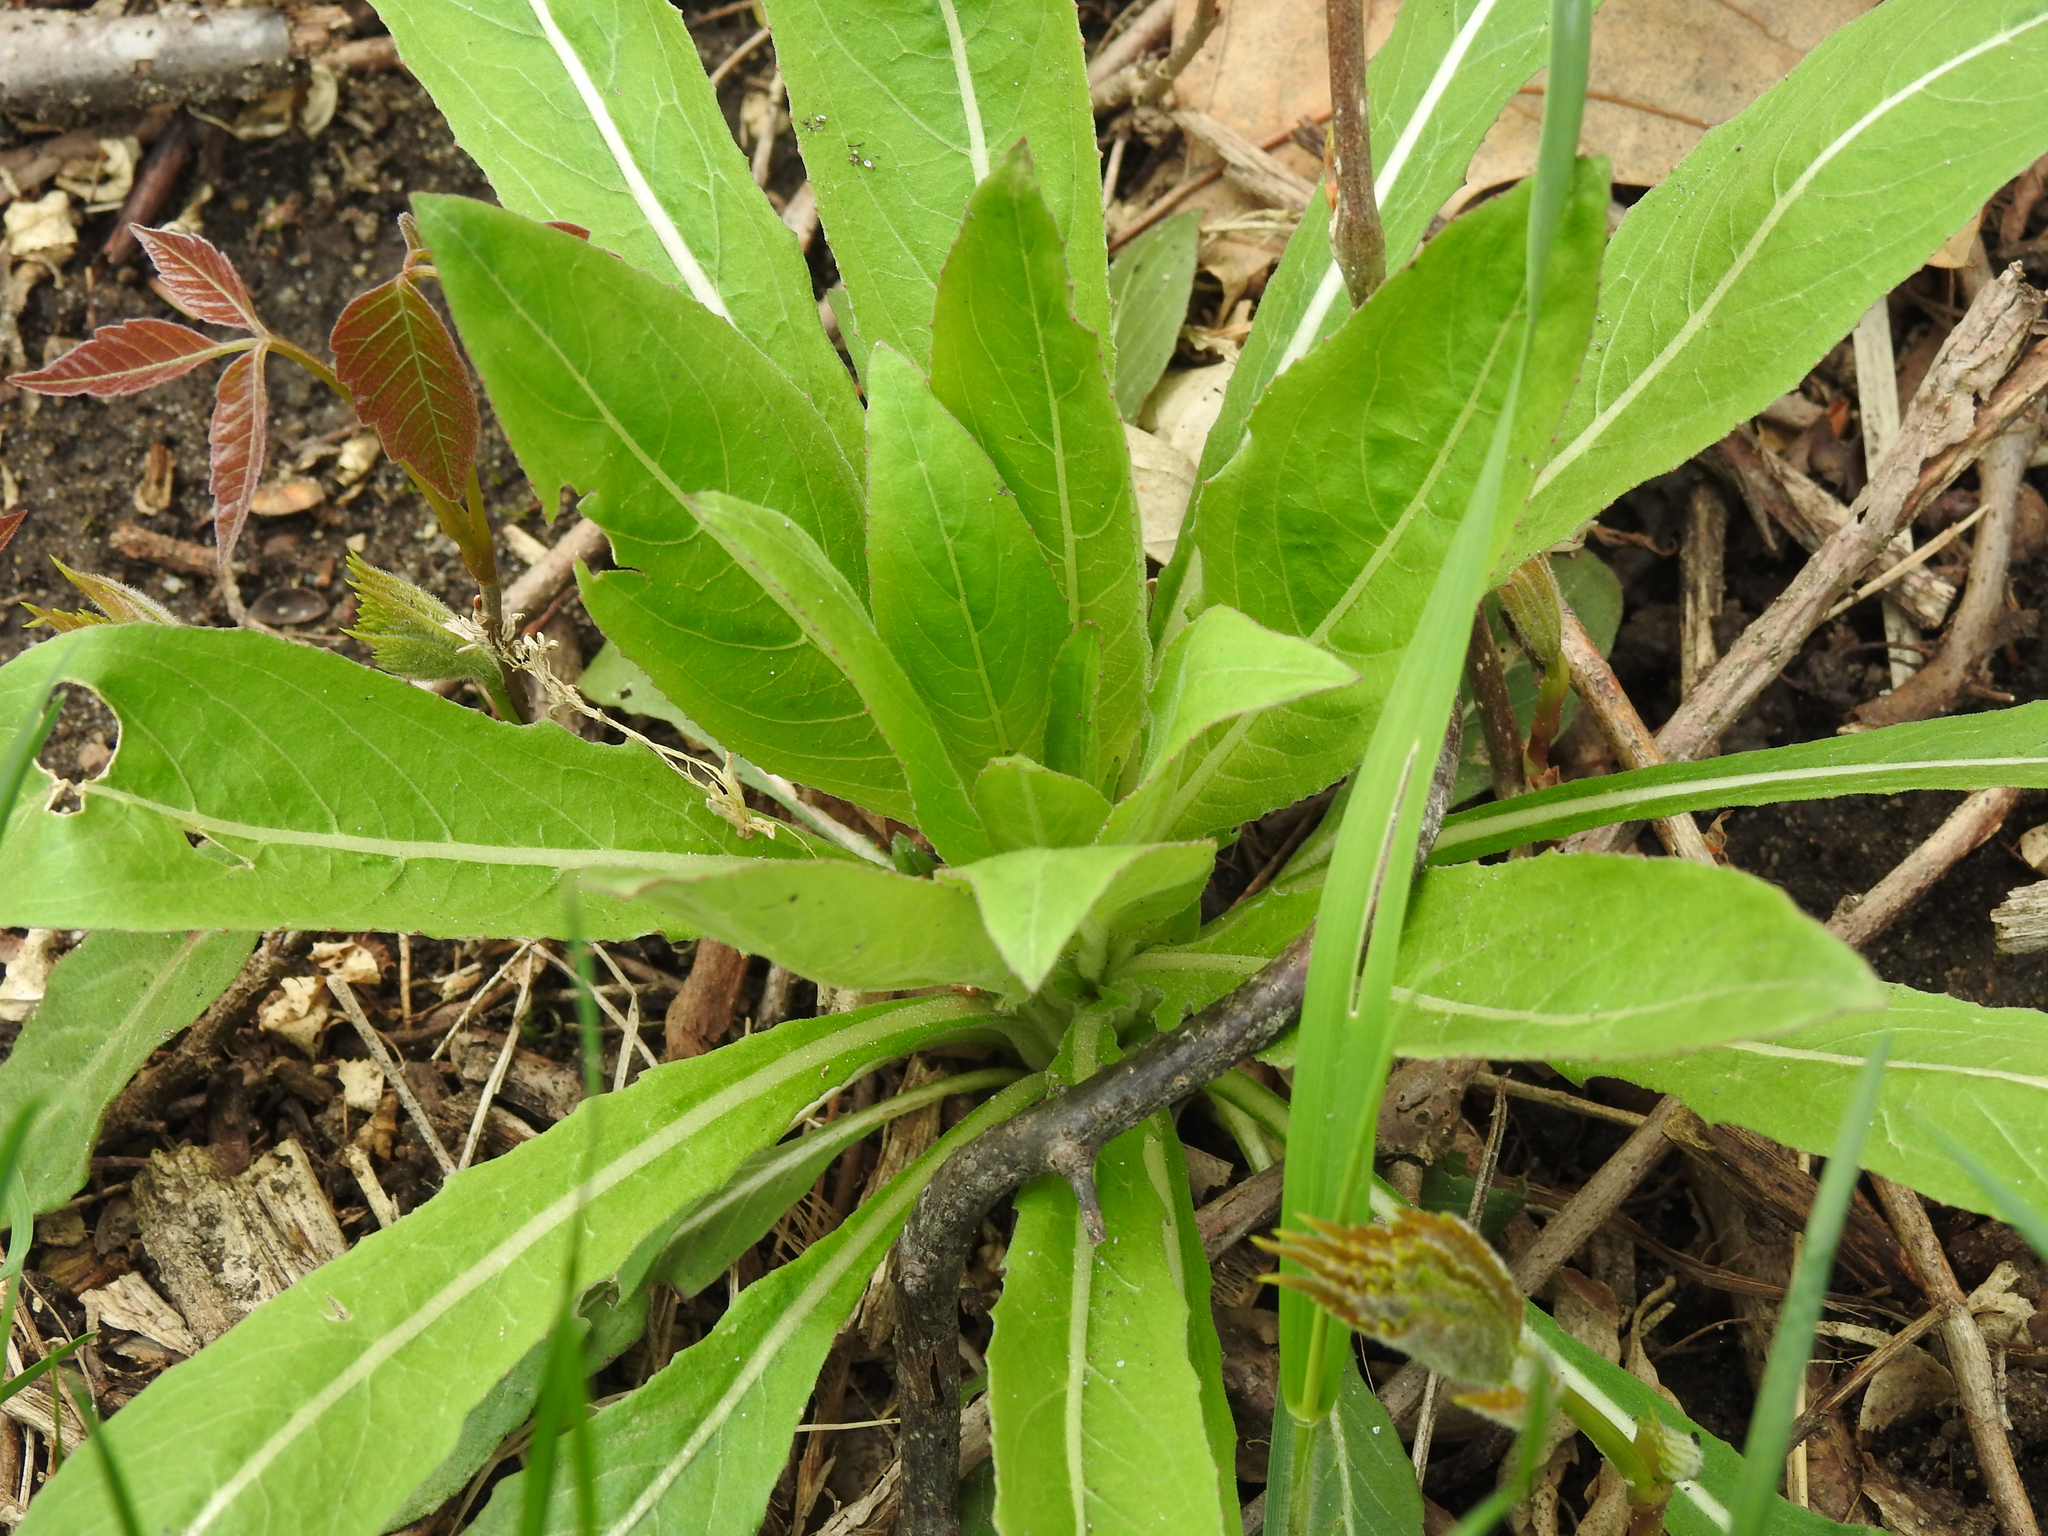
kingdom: Plantae
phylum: Tracheophyta
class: Magnoliopsida
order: Myrtales
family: Onagraceae
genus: Oenothera
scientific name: Oenothera biennis
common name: Common evening-primrose
